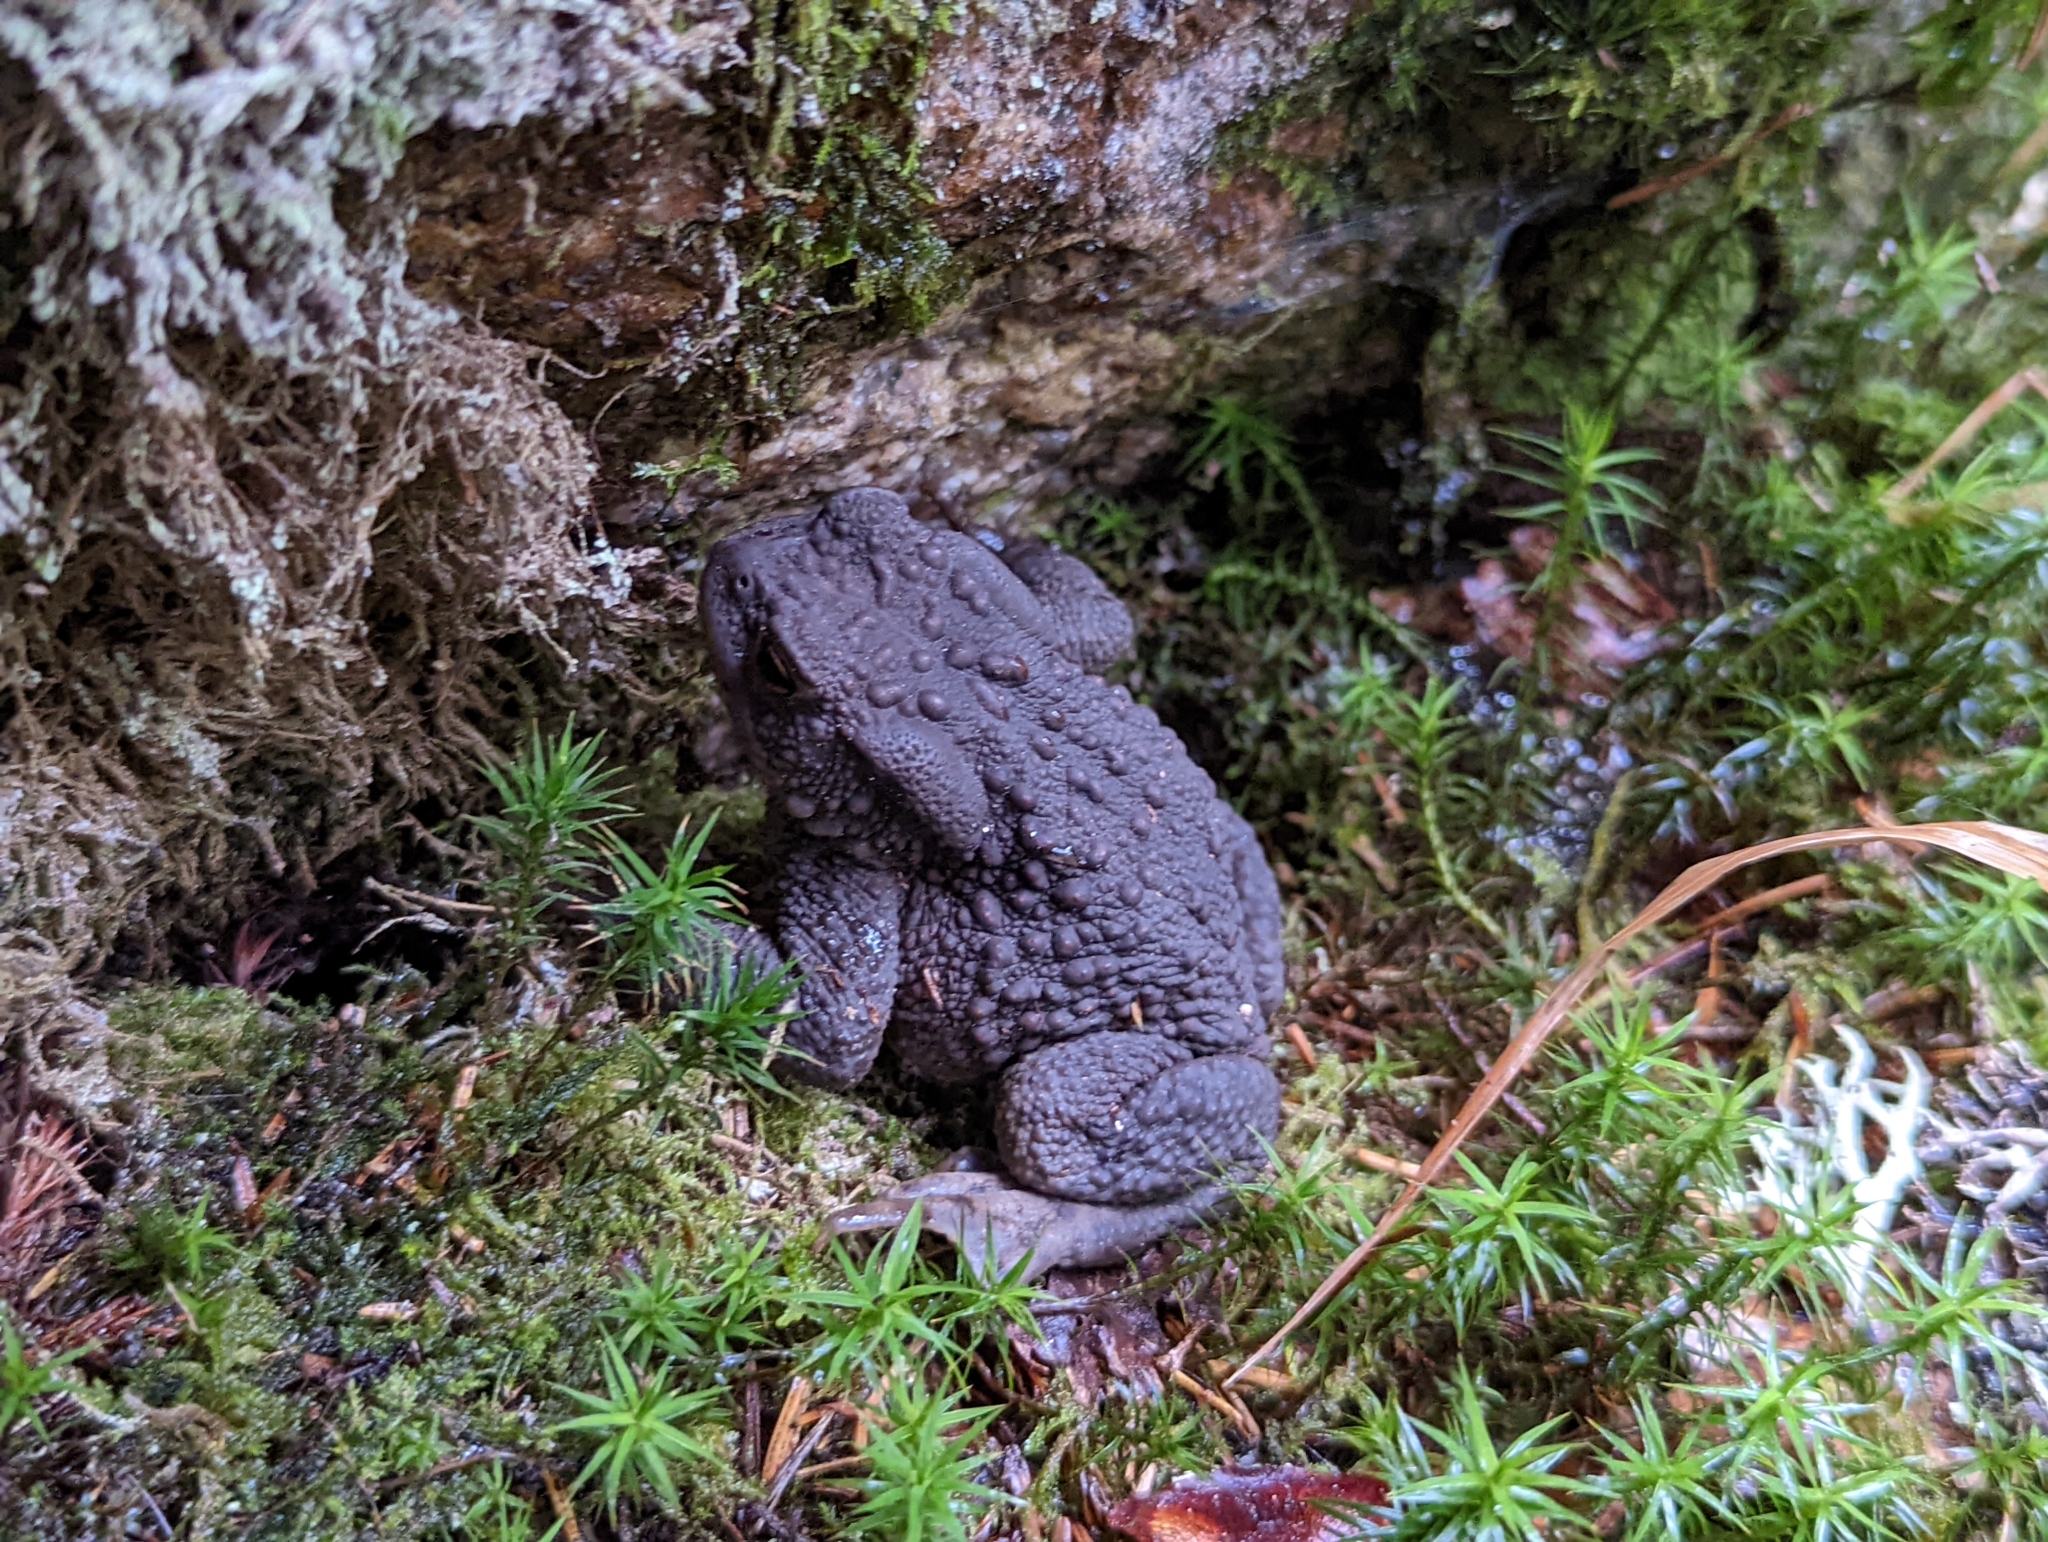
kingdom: Animalia
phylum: Chordata
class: Amphibia
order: Anura
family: Bufonidae
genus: Bufo
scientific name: Bufo bufo
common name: Common toad
